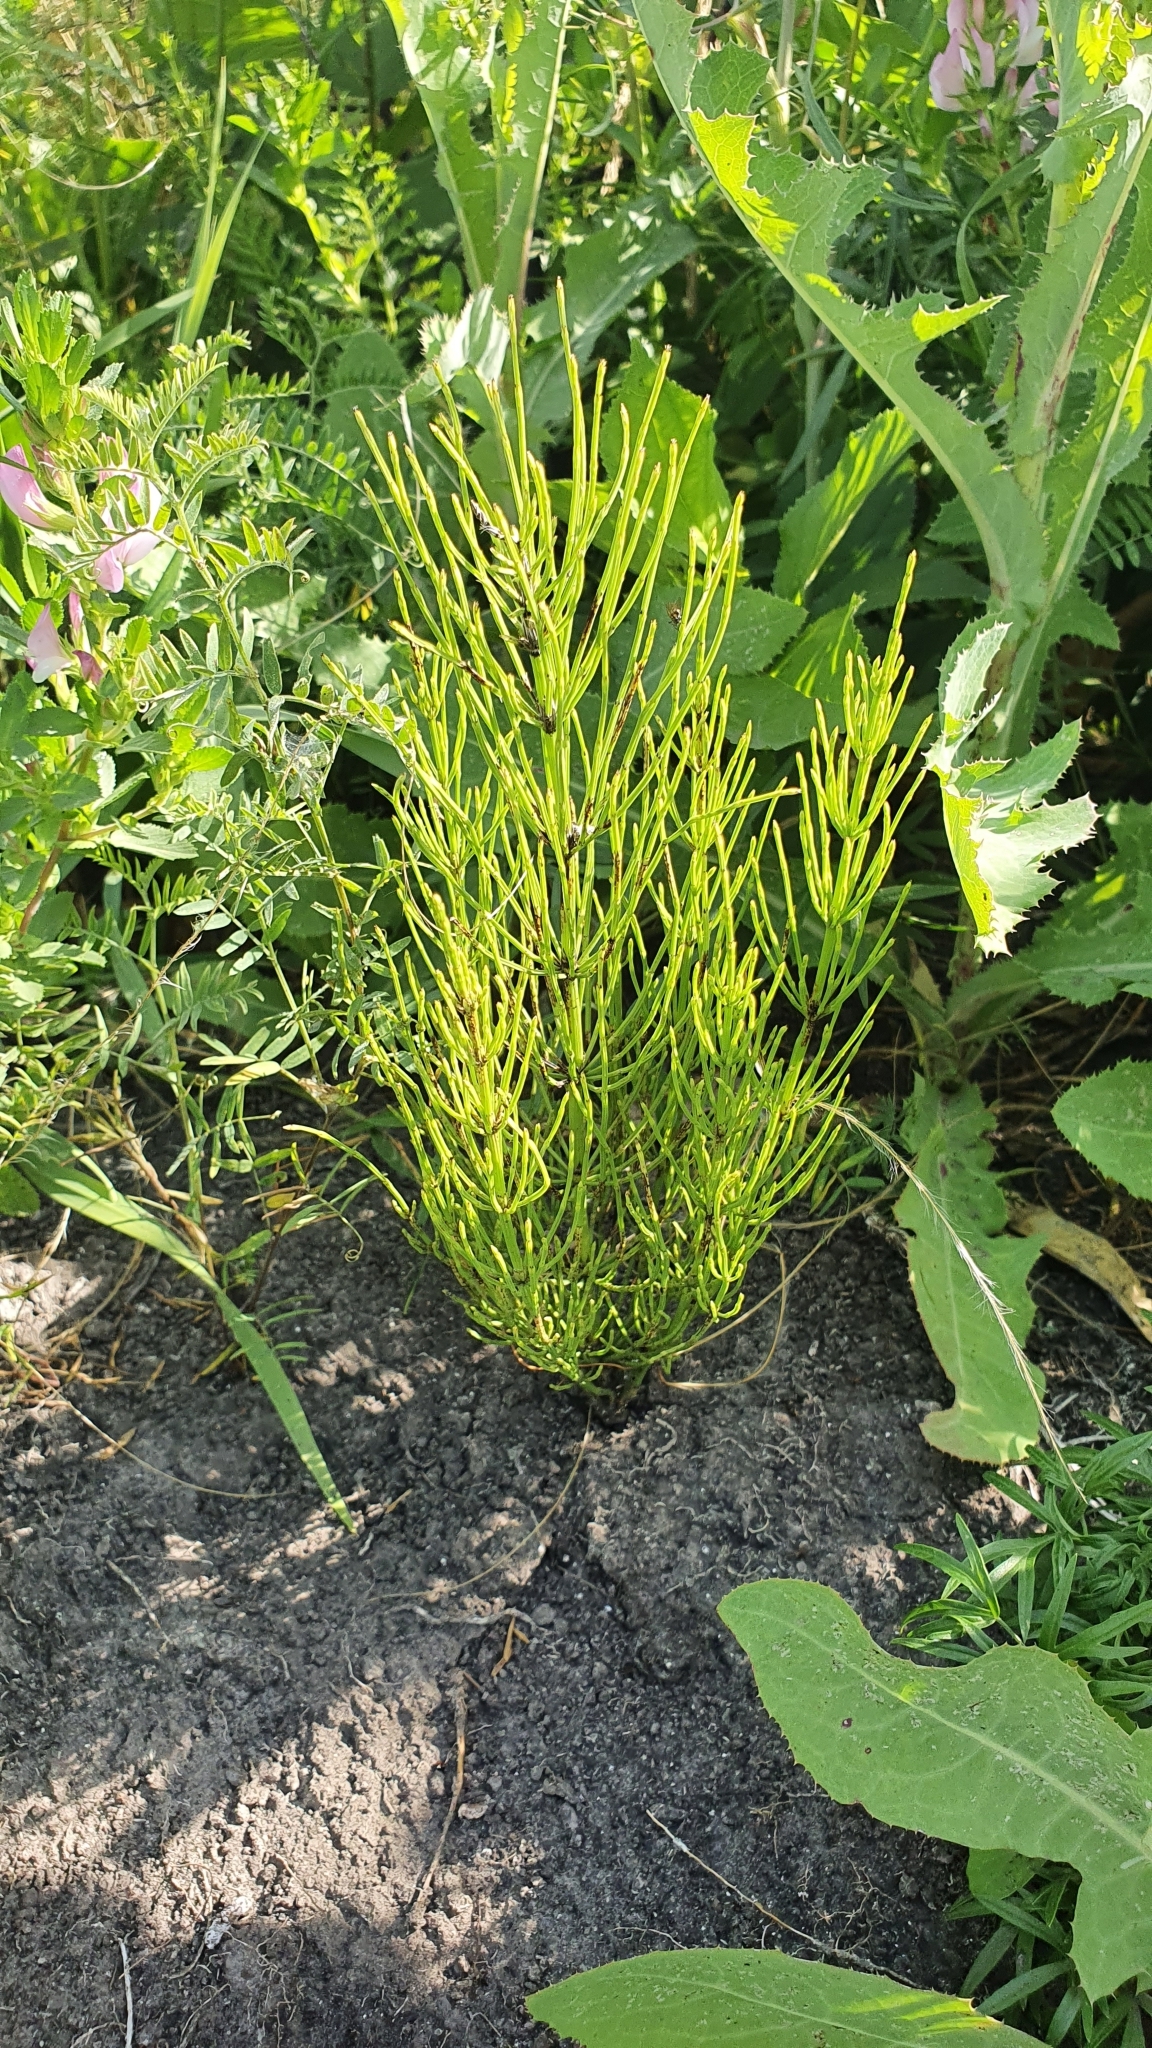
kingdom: Plantae
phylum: Tracheophyta
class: Polypodiopsida
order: Equisetales
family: Equisetaceae
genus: Equisetum
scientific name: Equisetum arvense
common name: Field horsetail
